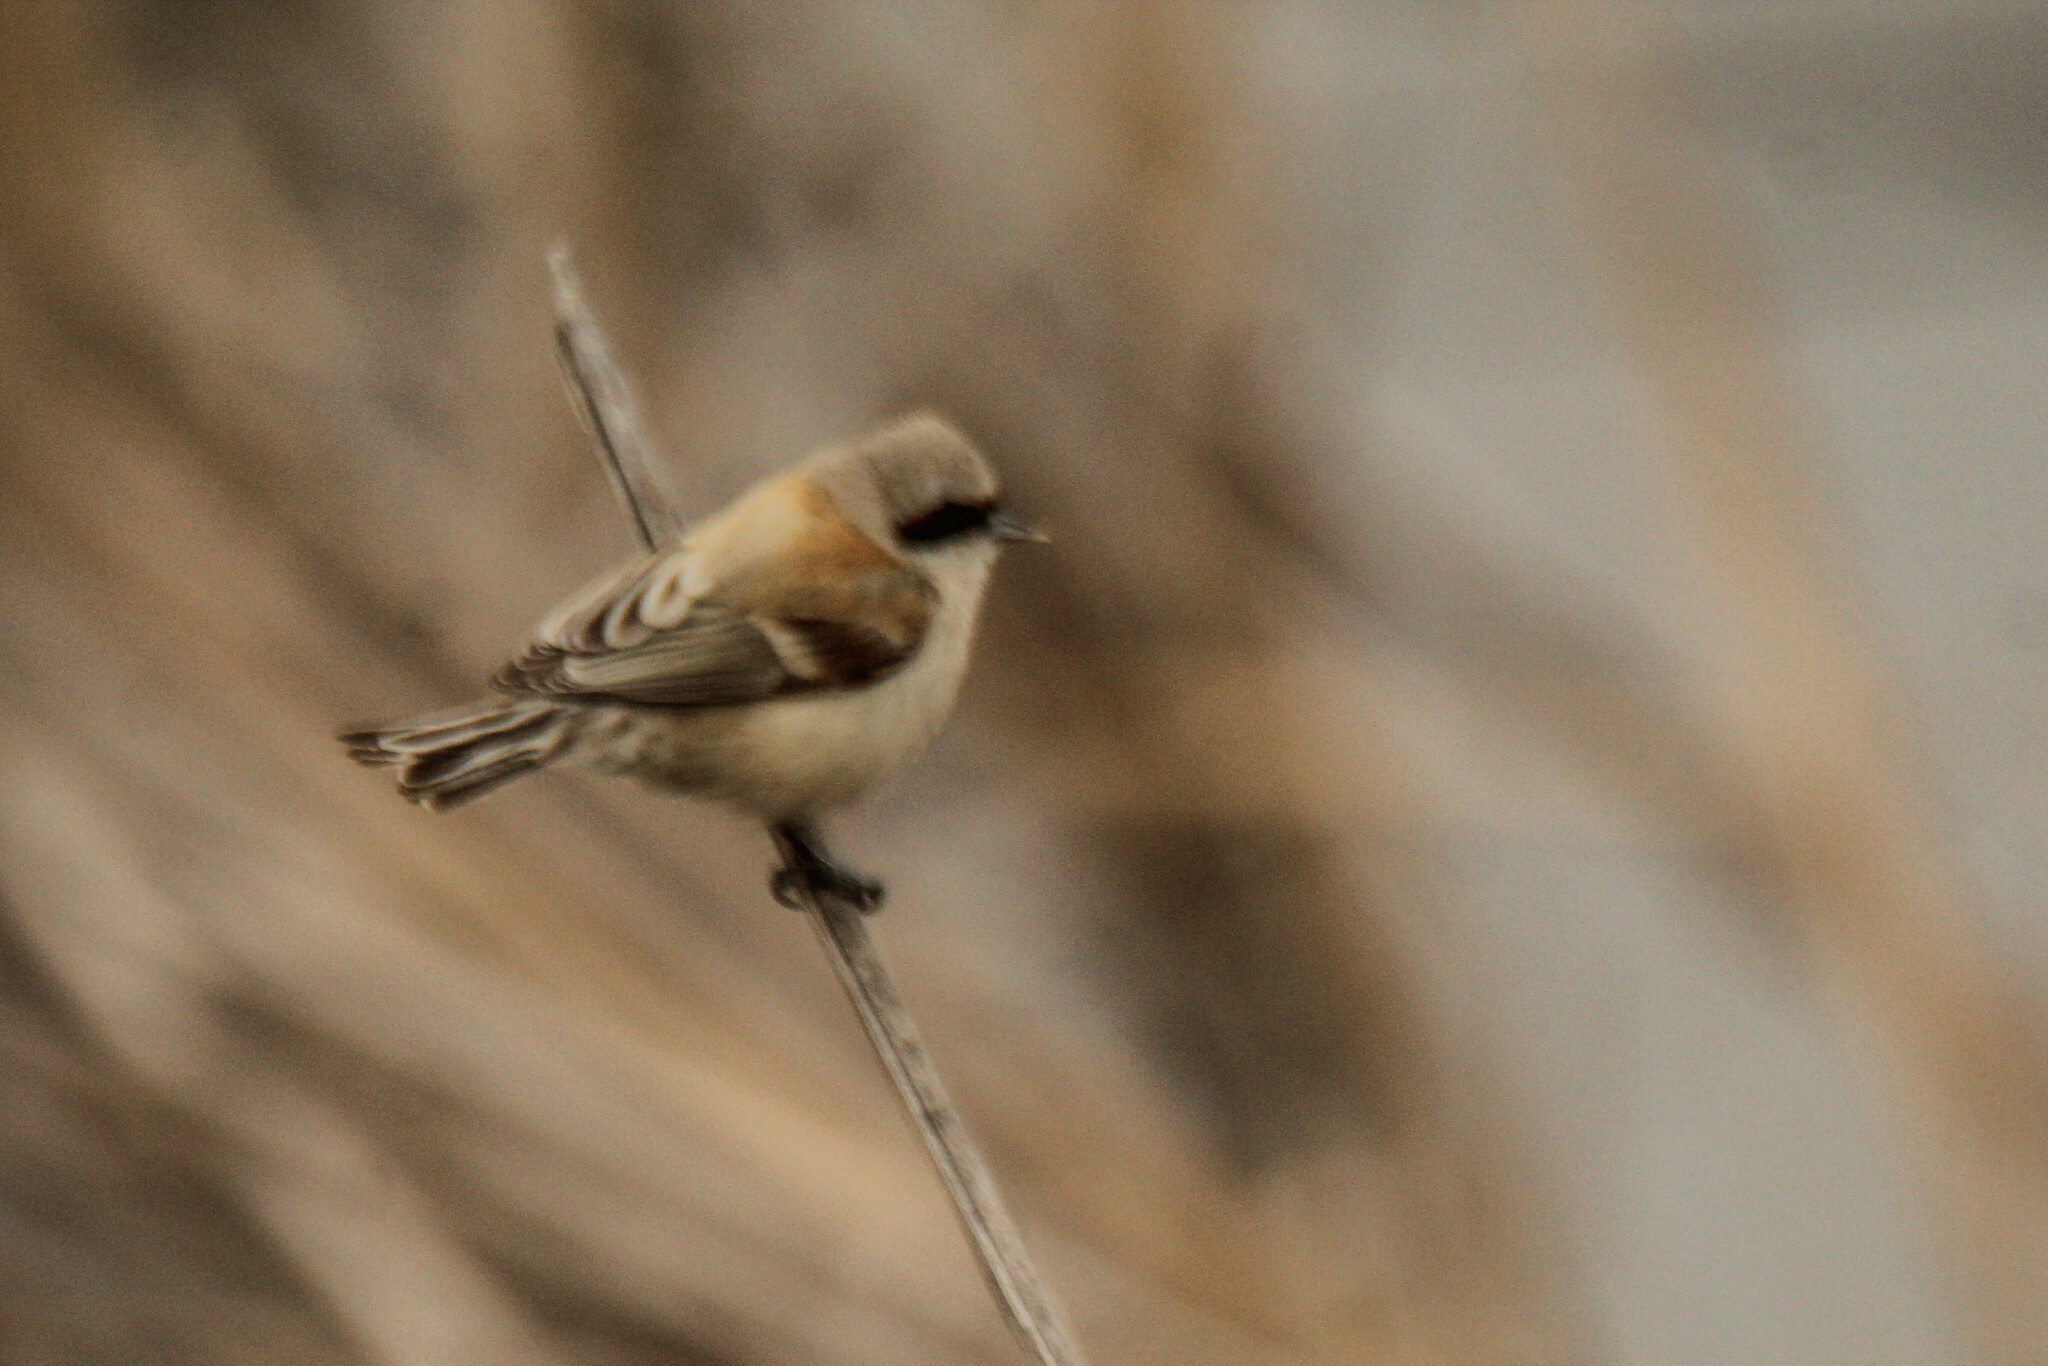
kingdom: Animalia
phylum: Chordata
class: Aves
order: Passeriformes
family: Remizidae
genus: Remiz
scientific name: Remiz pendulinus
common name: Eurasian penduline tit
